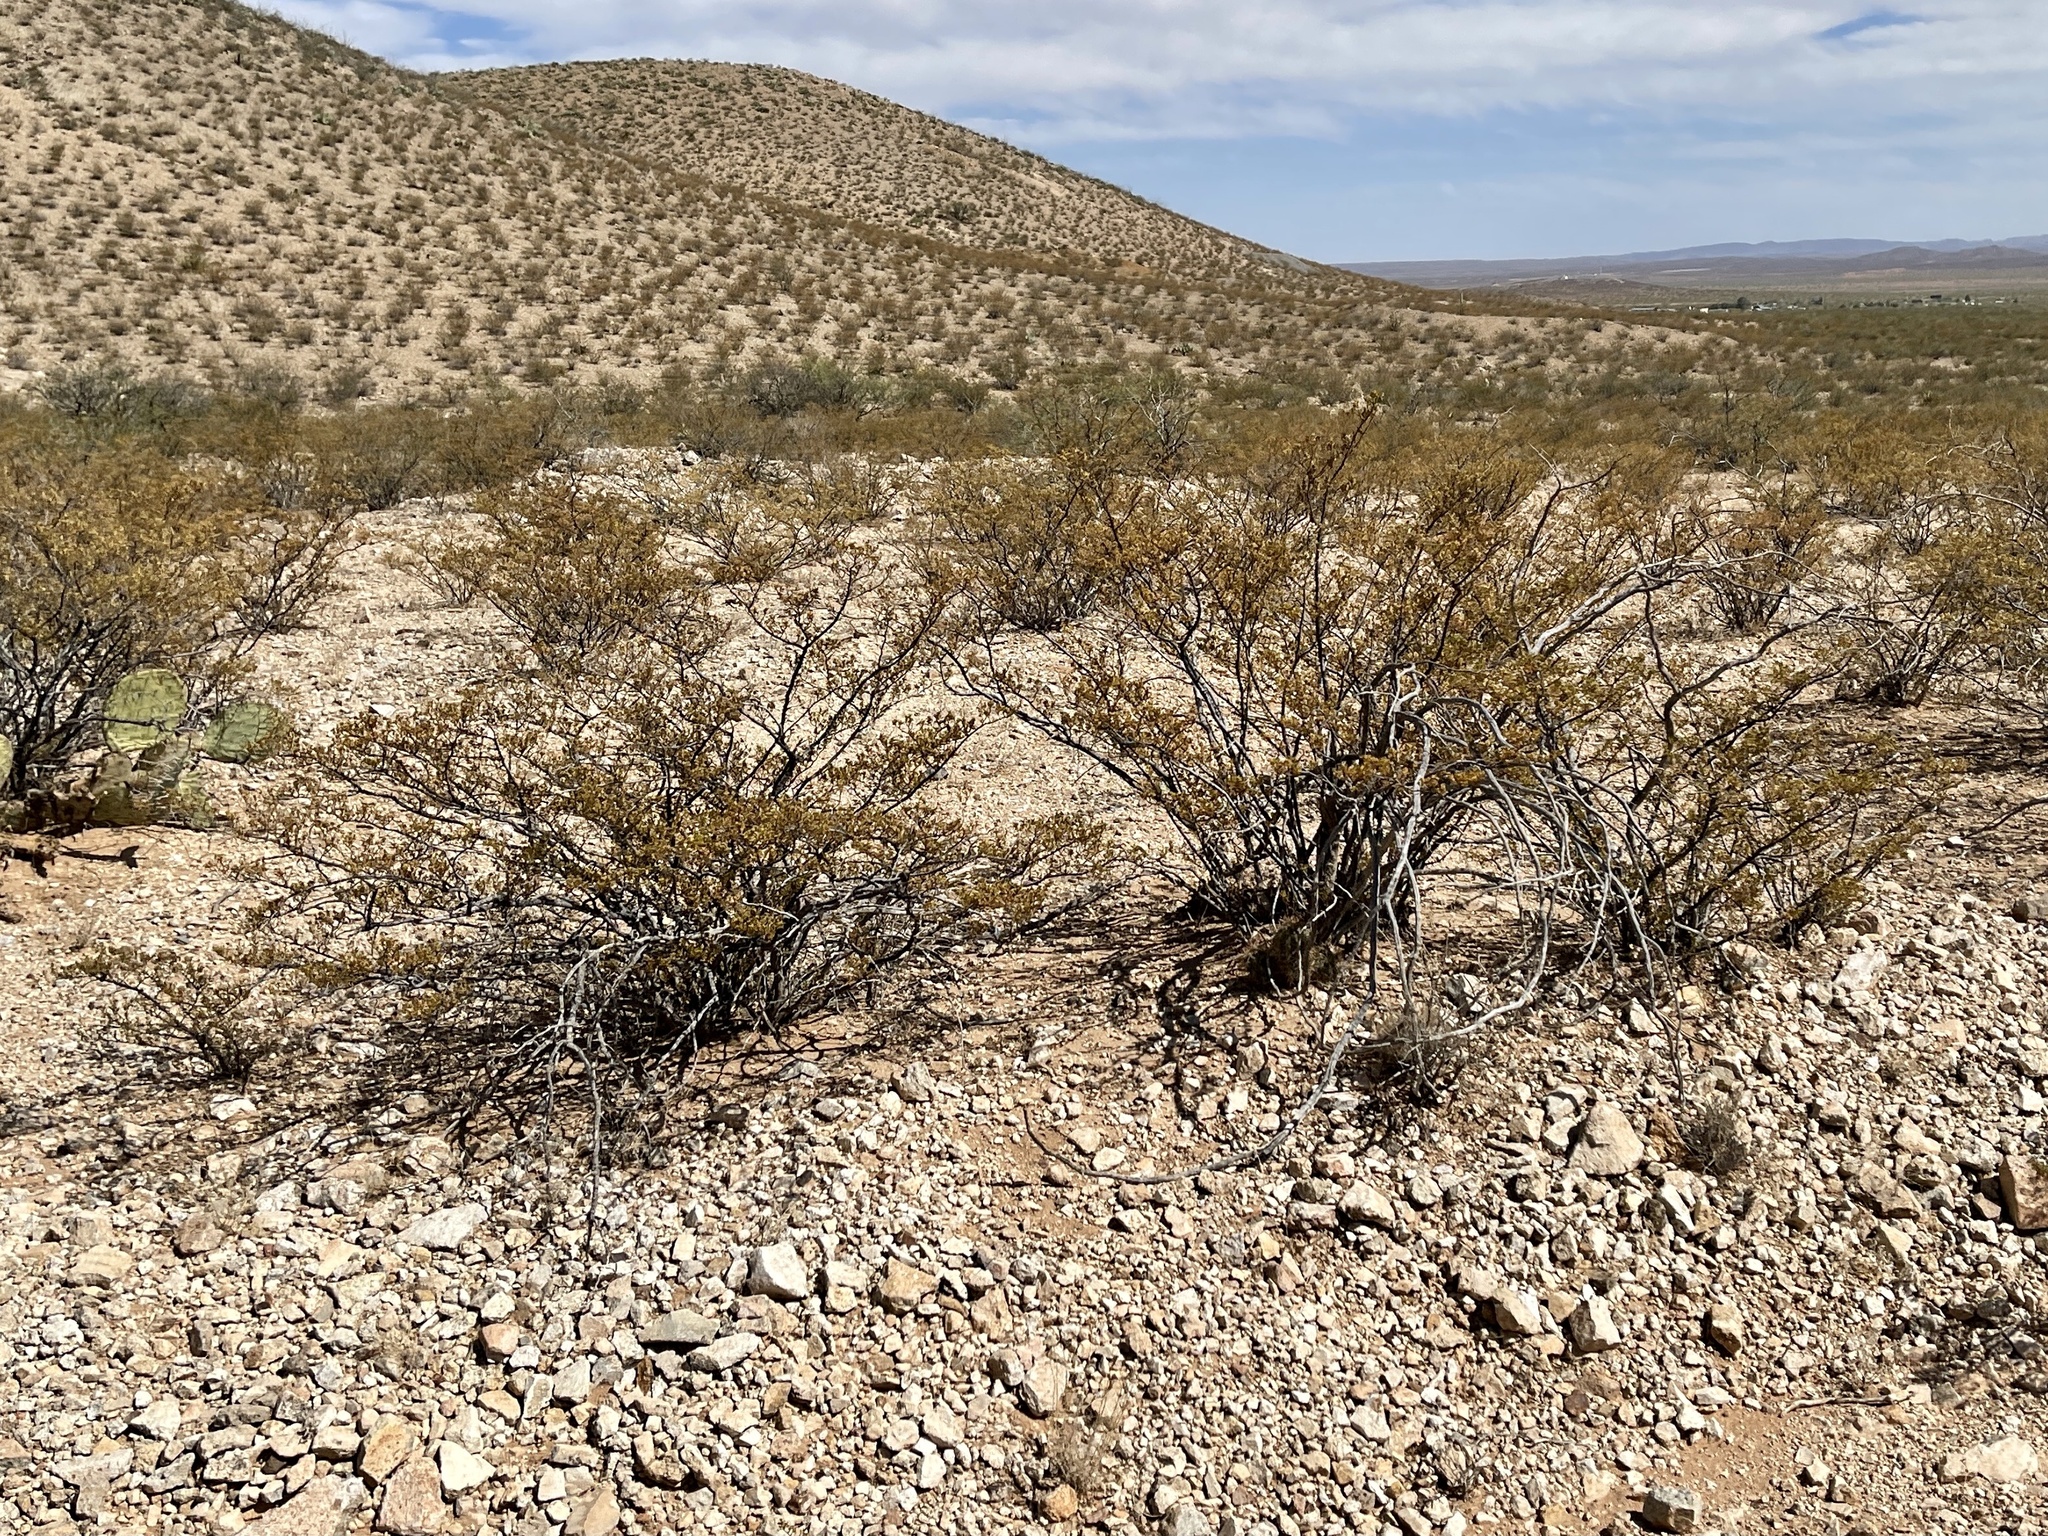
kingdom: Plantae
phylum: Tracheophyta
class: Magnoliopsida
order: Zygophyllales
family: Zygophyllaceae
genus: Larrea
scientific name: Larrea tridentata
